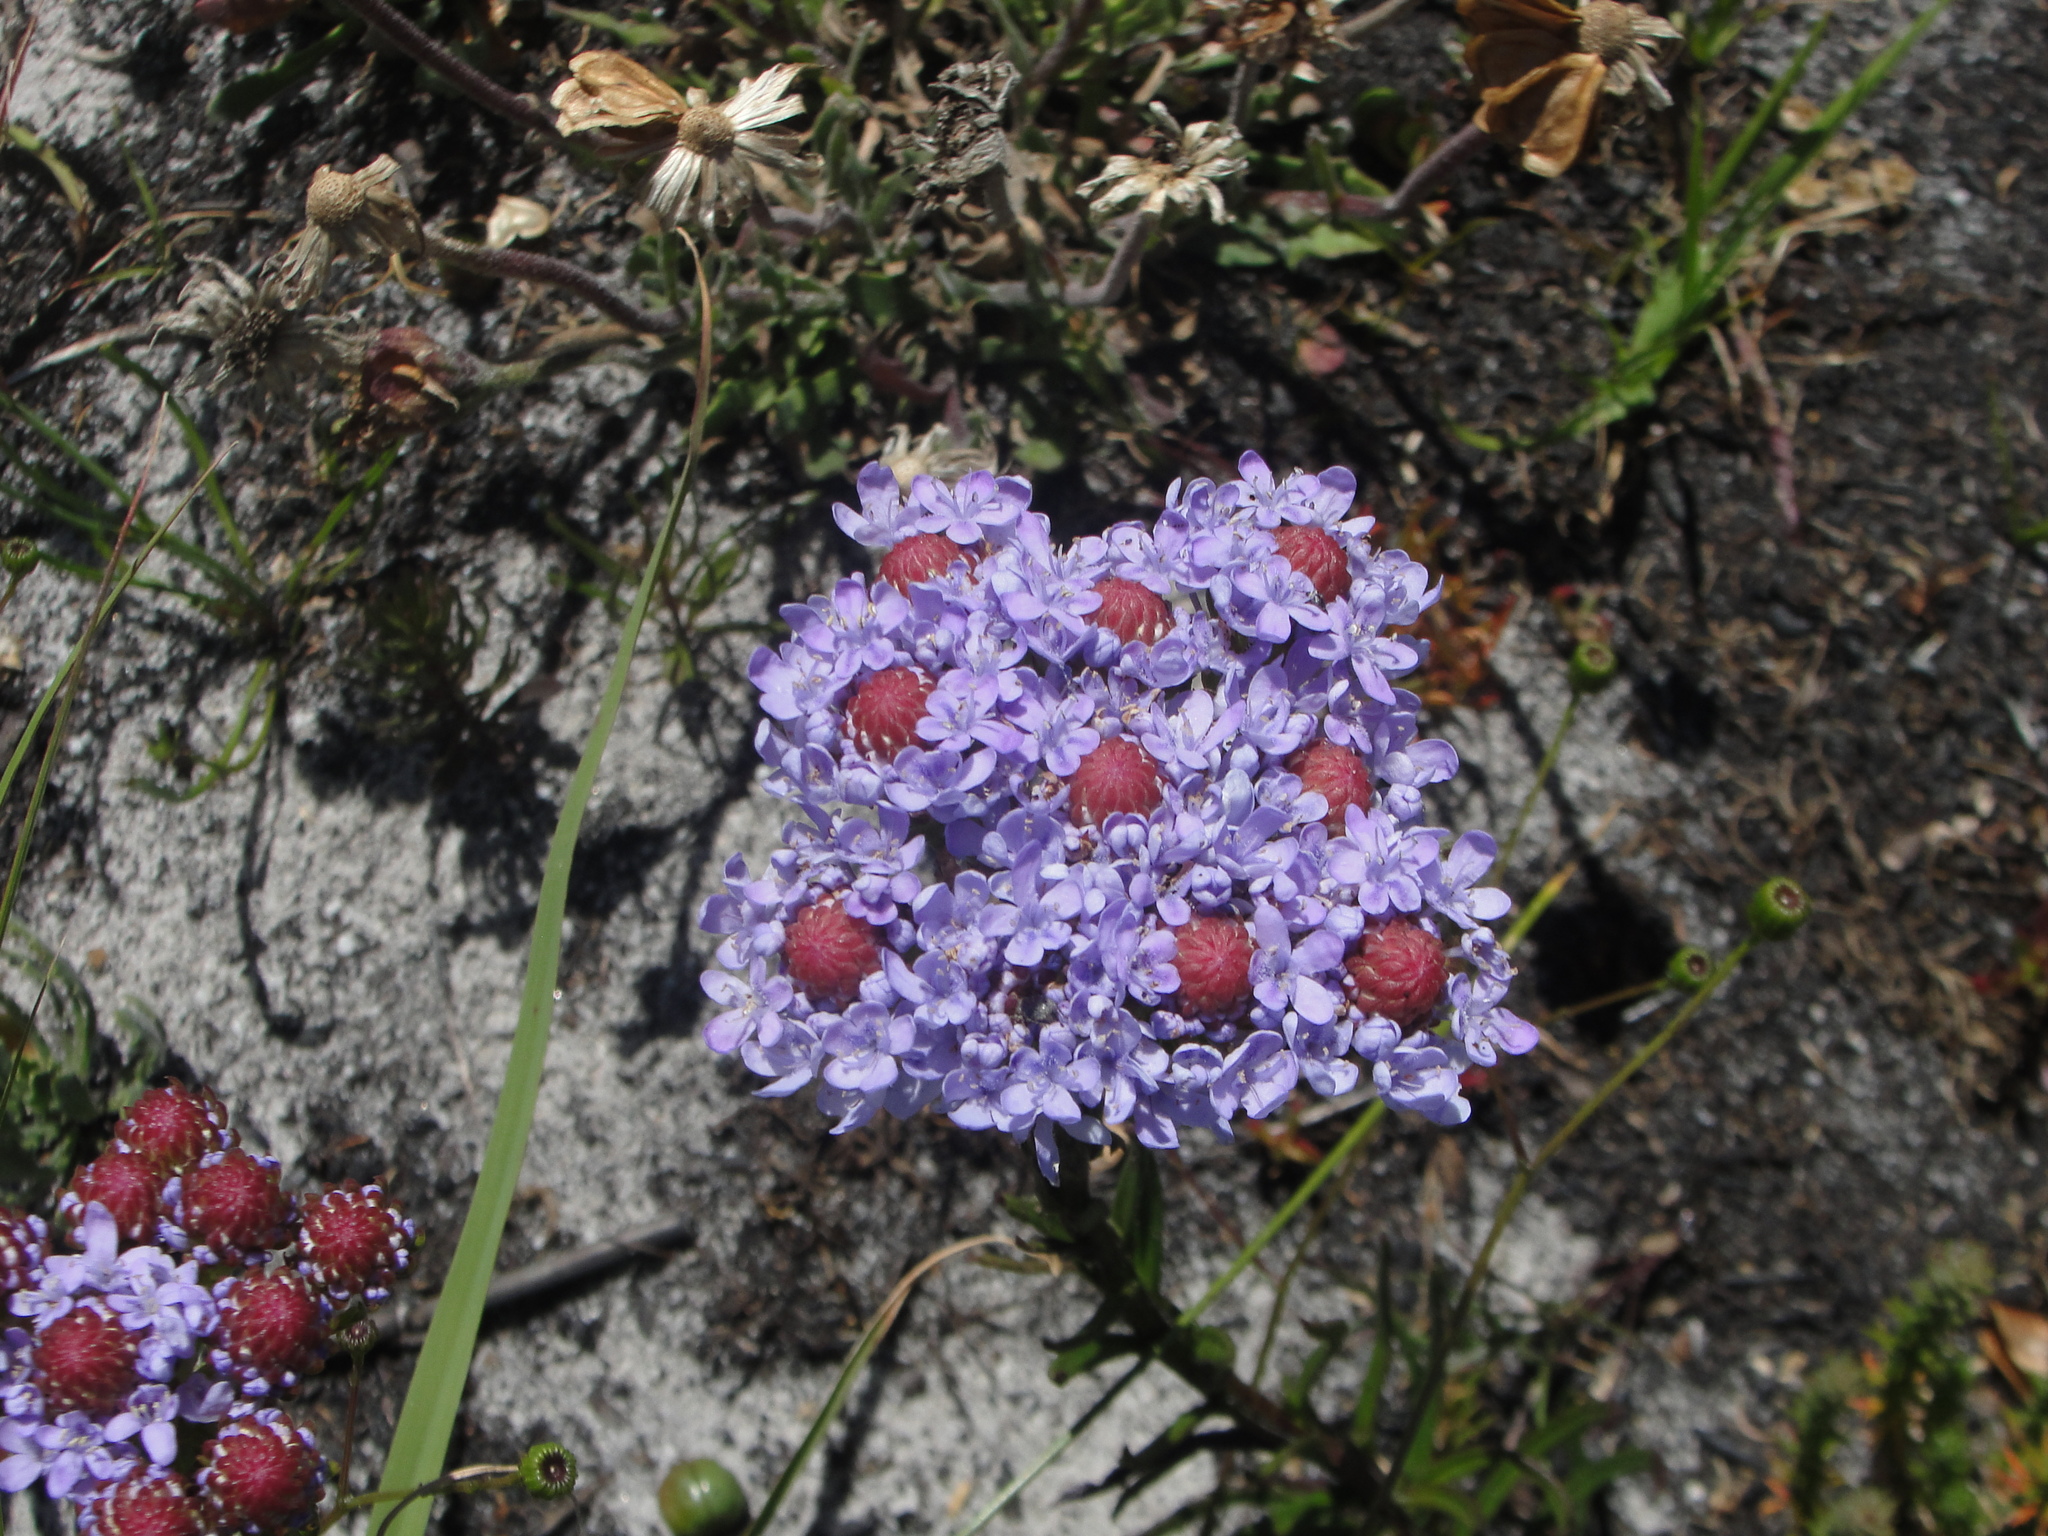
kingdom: Plantae
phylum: Tracheophyta
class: Magnoliopsida
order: Lamiales
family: Scrophulariaceae
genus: Pseudoselago
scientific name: Pseudoselago spuria
